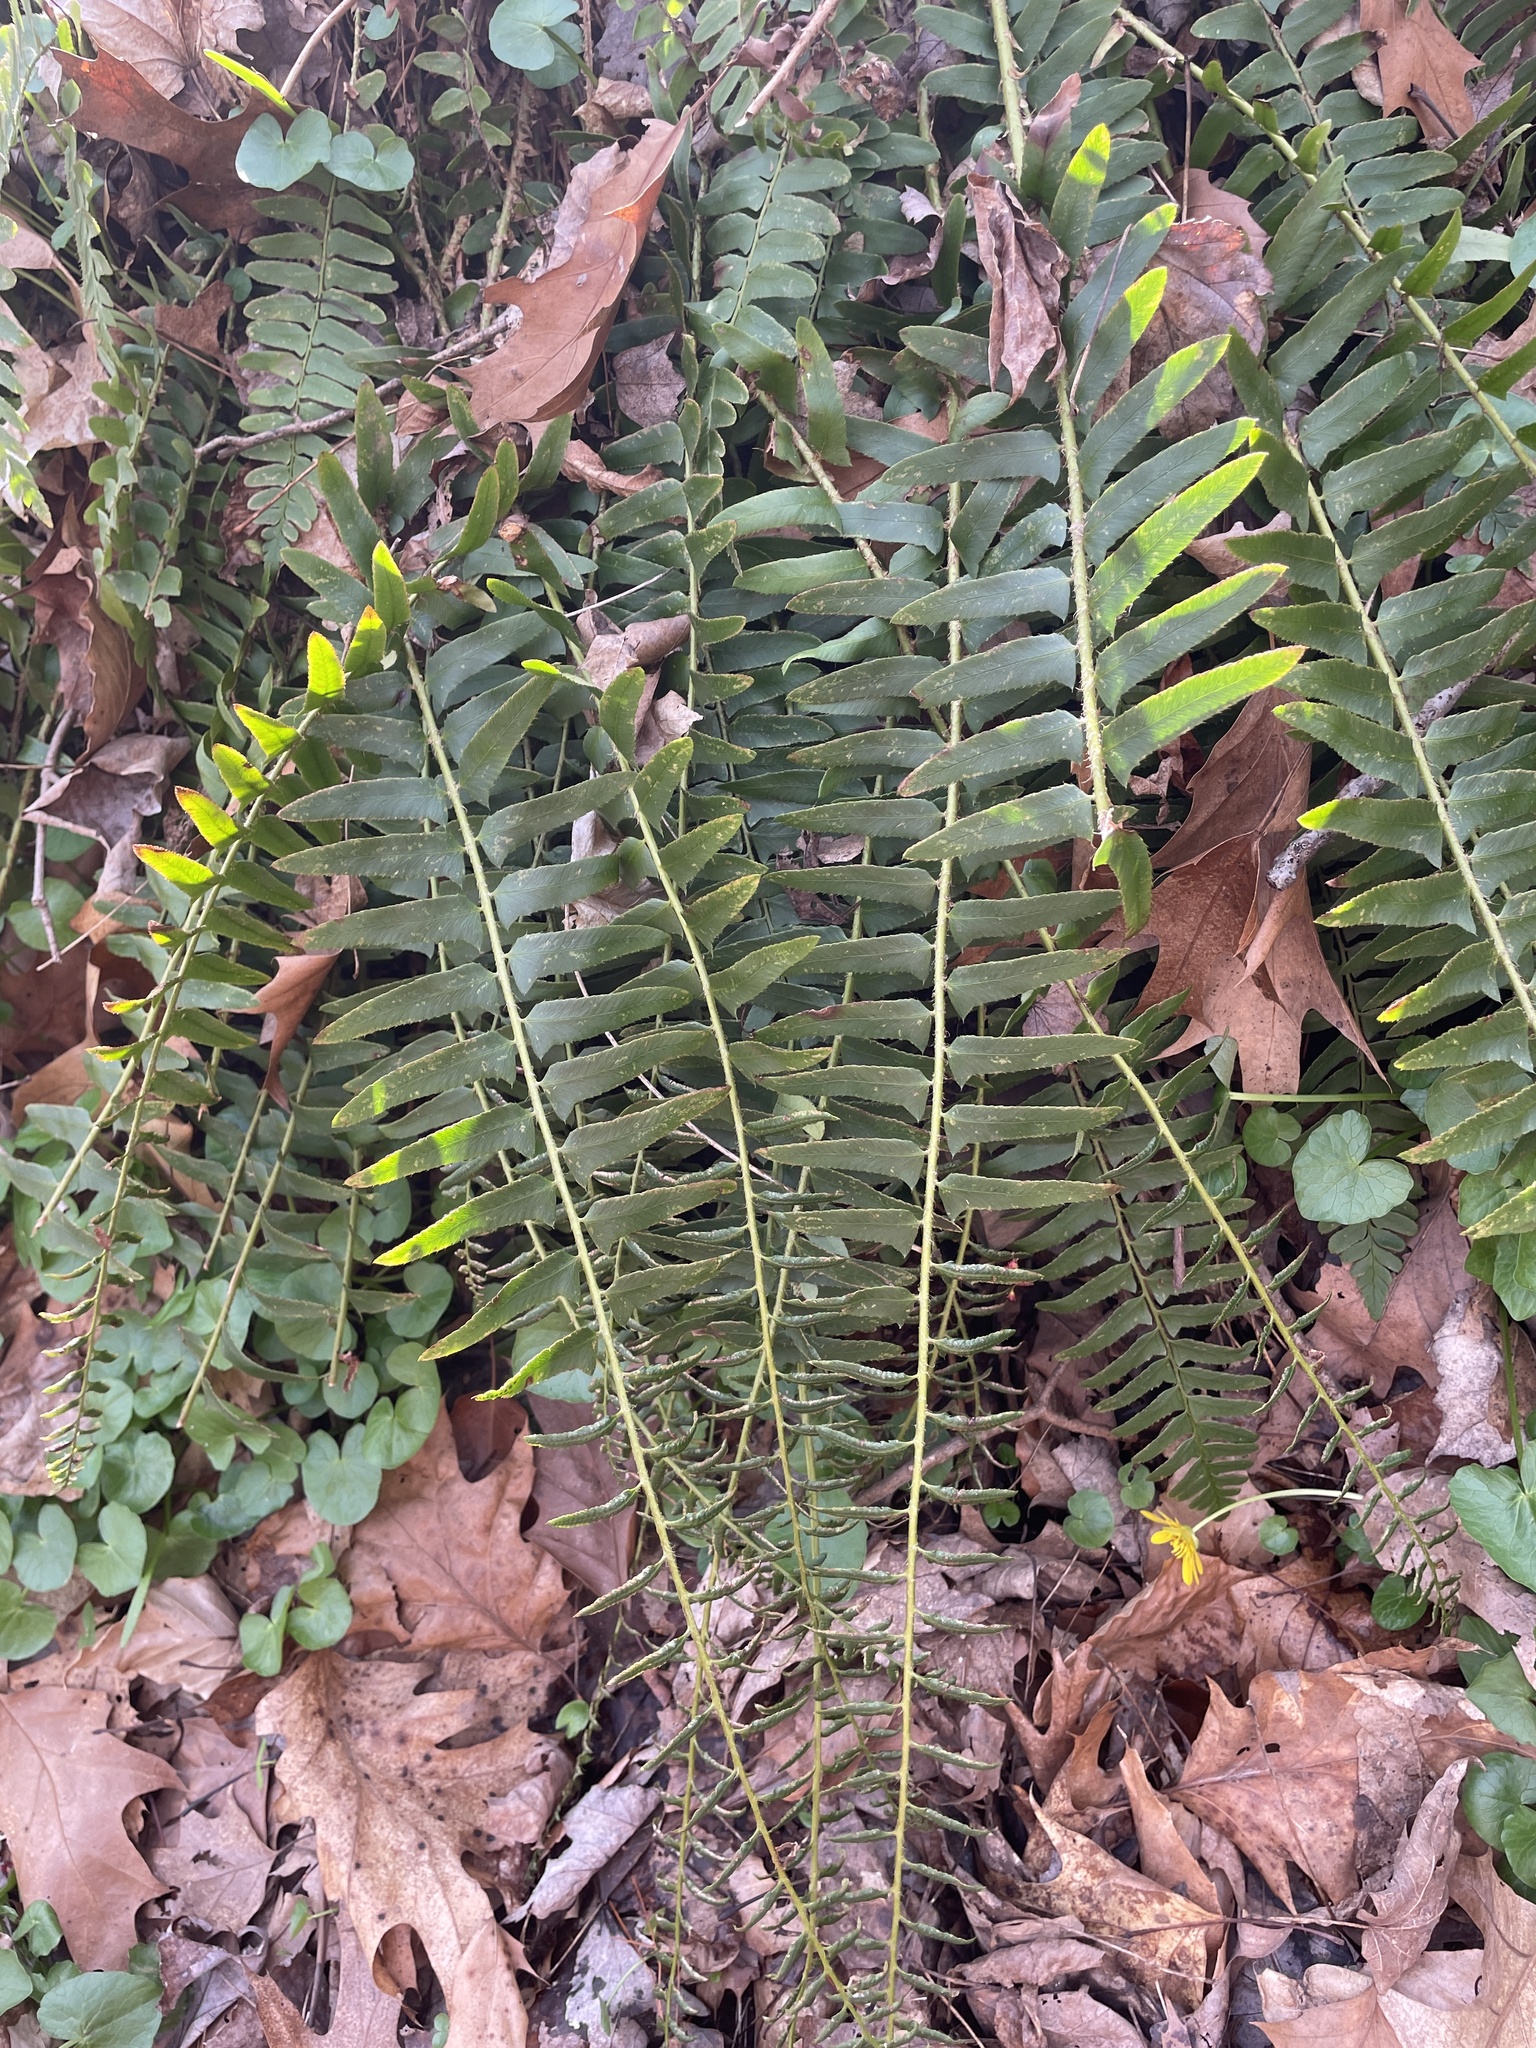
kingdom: Plantae
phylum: Tracheophyta
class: Polypodiopsida
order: Polypodiales
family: Dryopteridaceae
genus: Polystichum
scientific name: Polystichum acrostichoides
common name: Christmas fern
